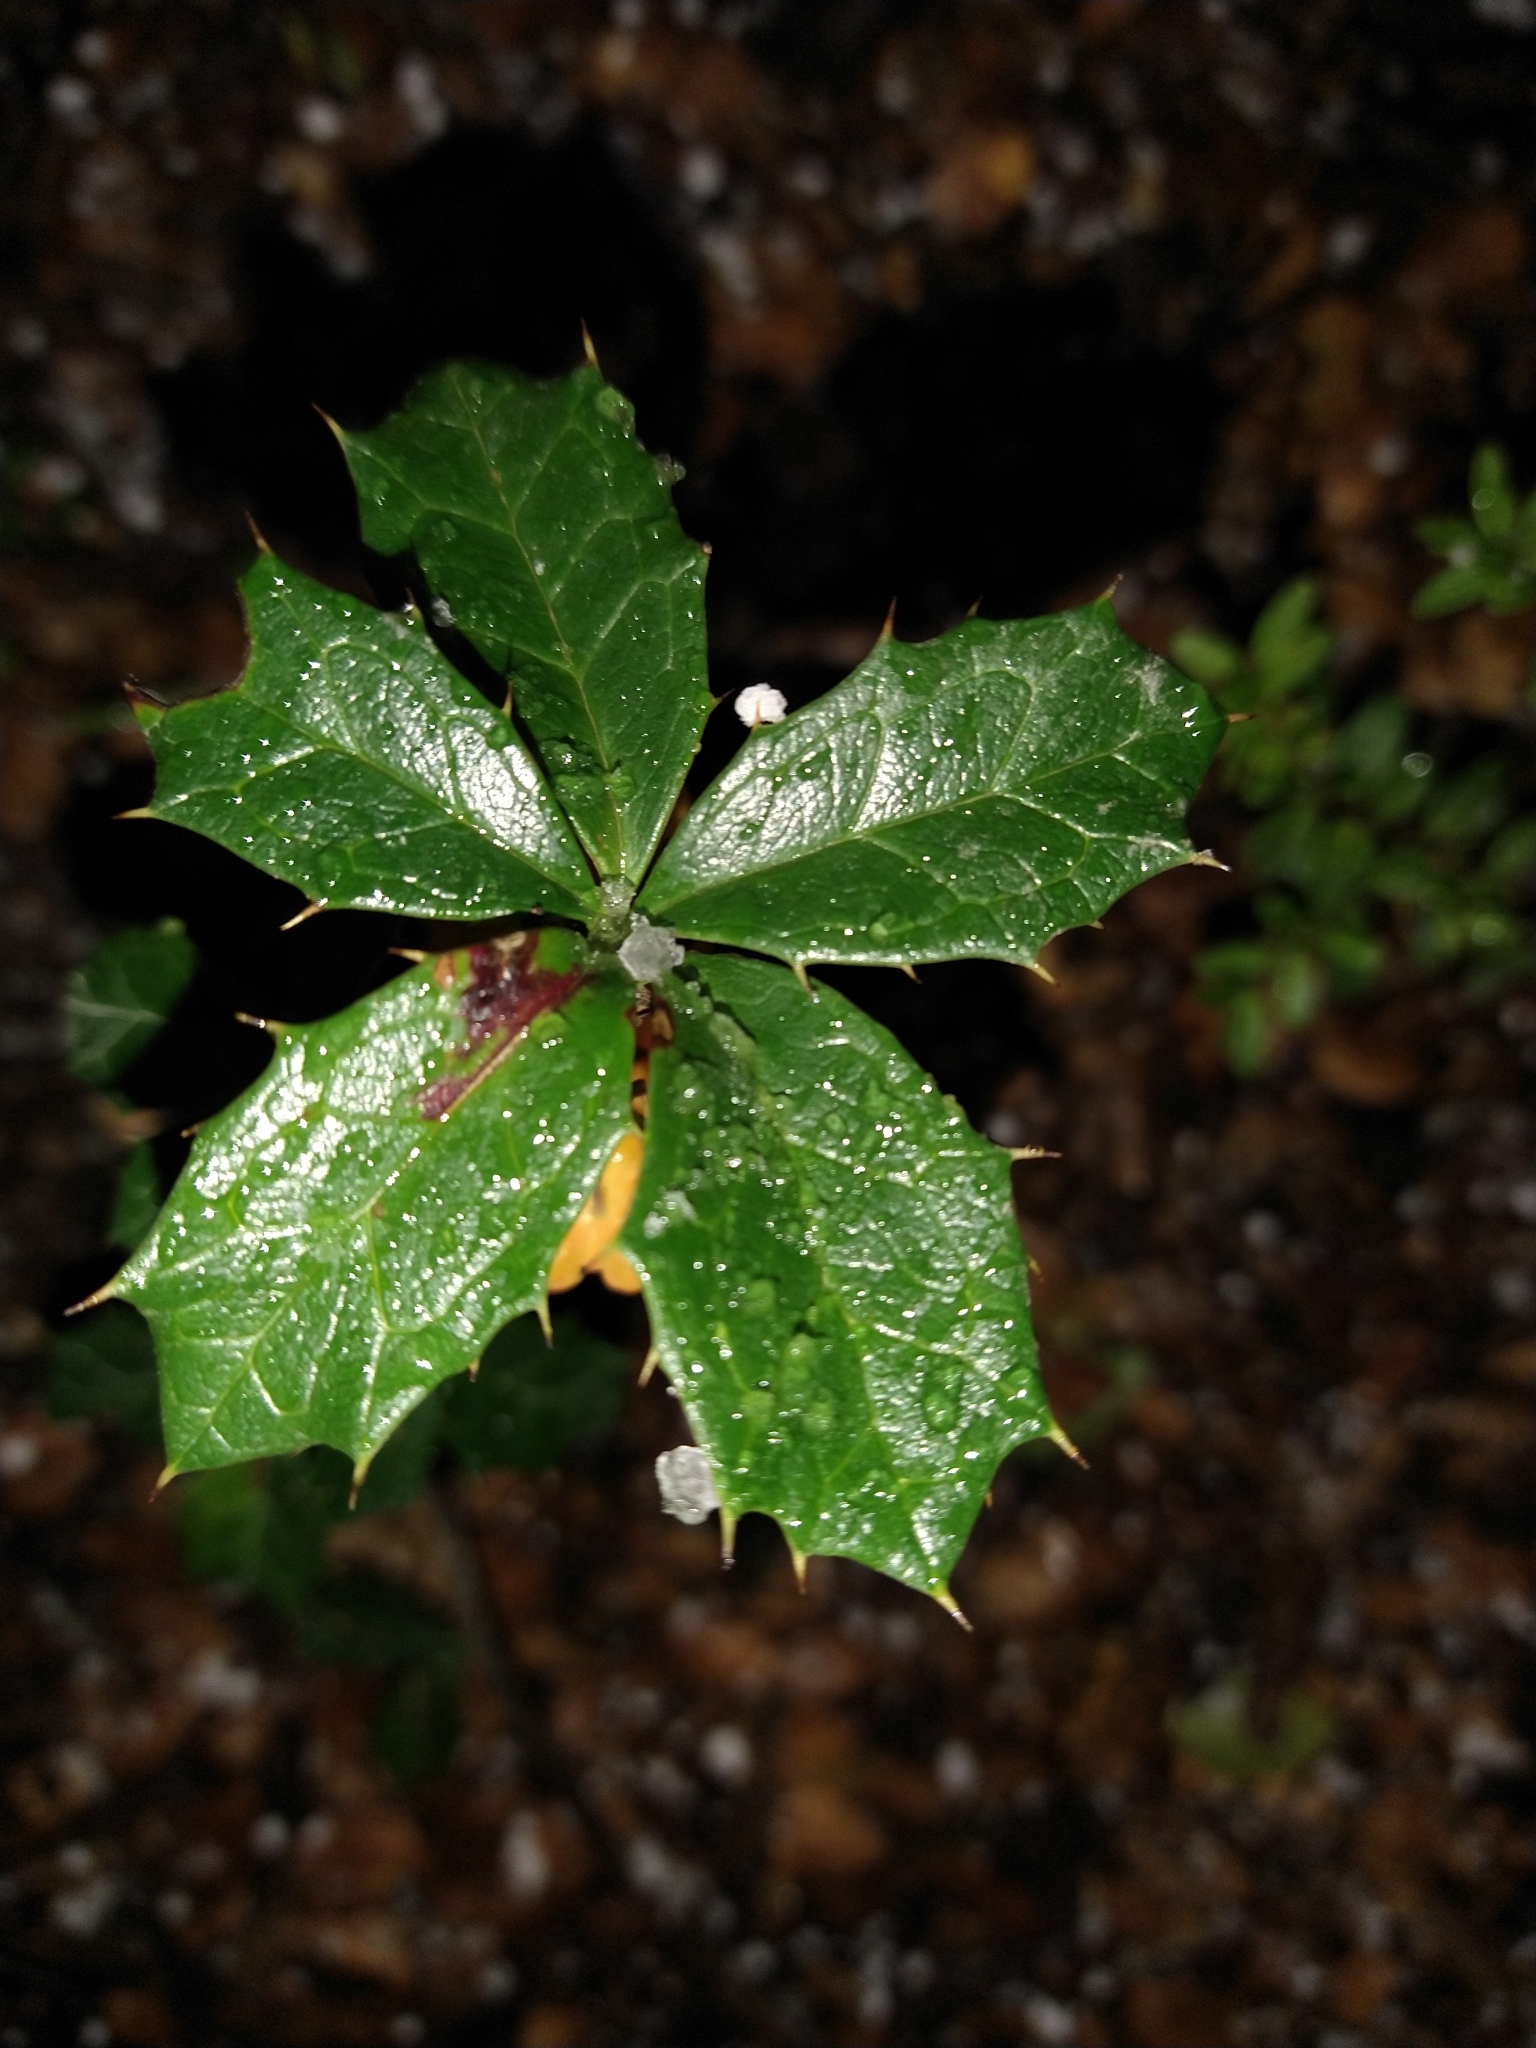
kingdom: Plantae
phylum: Tracheophyta
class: Magnoliopsida
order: Ranunculales
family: Berberidaceae
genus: Berberis
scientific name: Berberis ilicifolia
